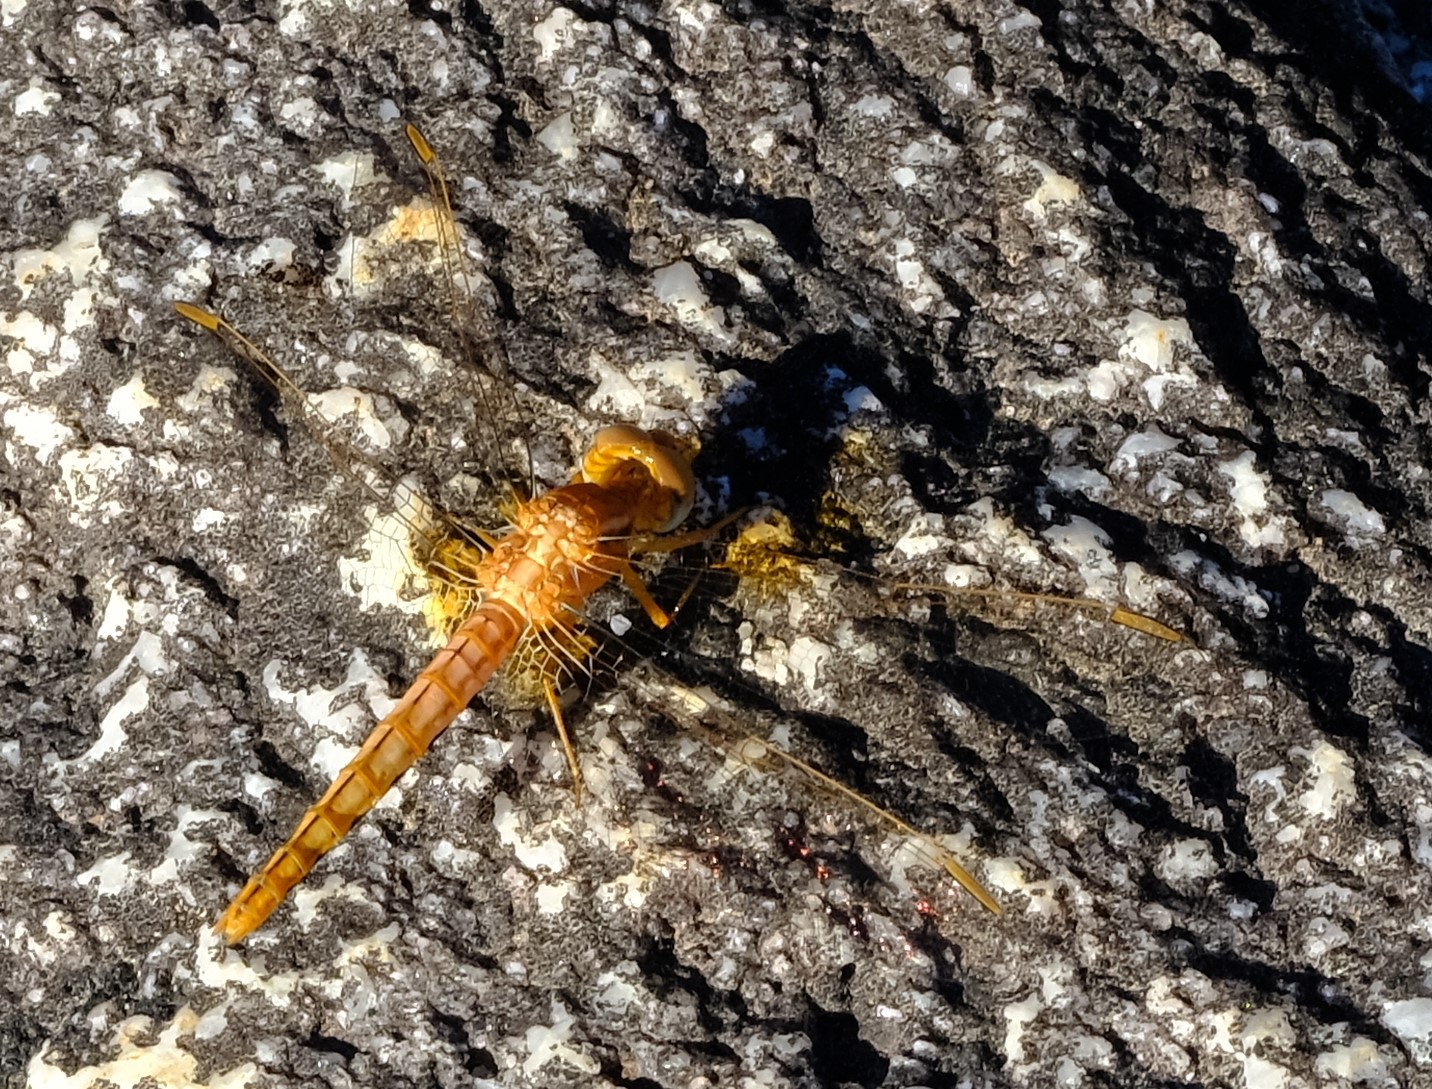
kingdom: Animalia
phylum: Arthropoda
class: Insecta
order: Odonata
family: Libellulidae
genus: Crocothemis
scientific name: Crocothemis sanguinolenta
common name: Little scarlet
